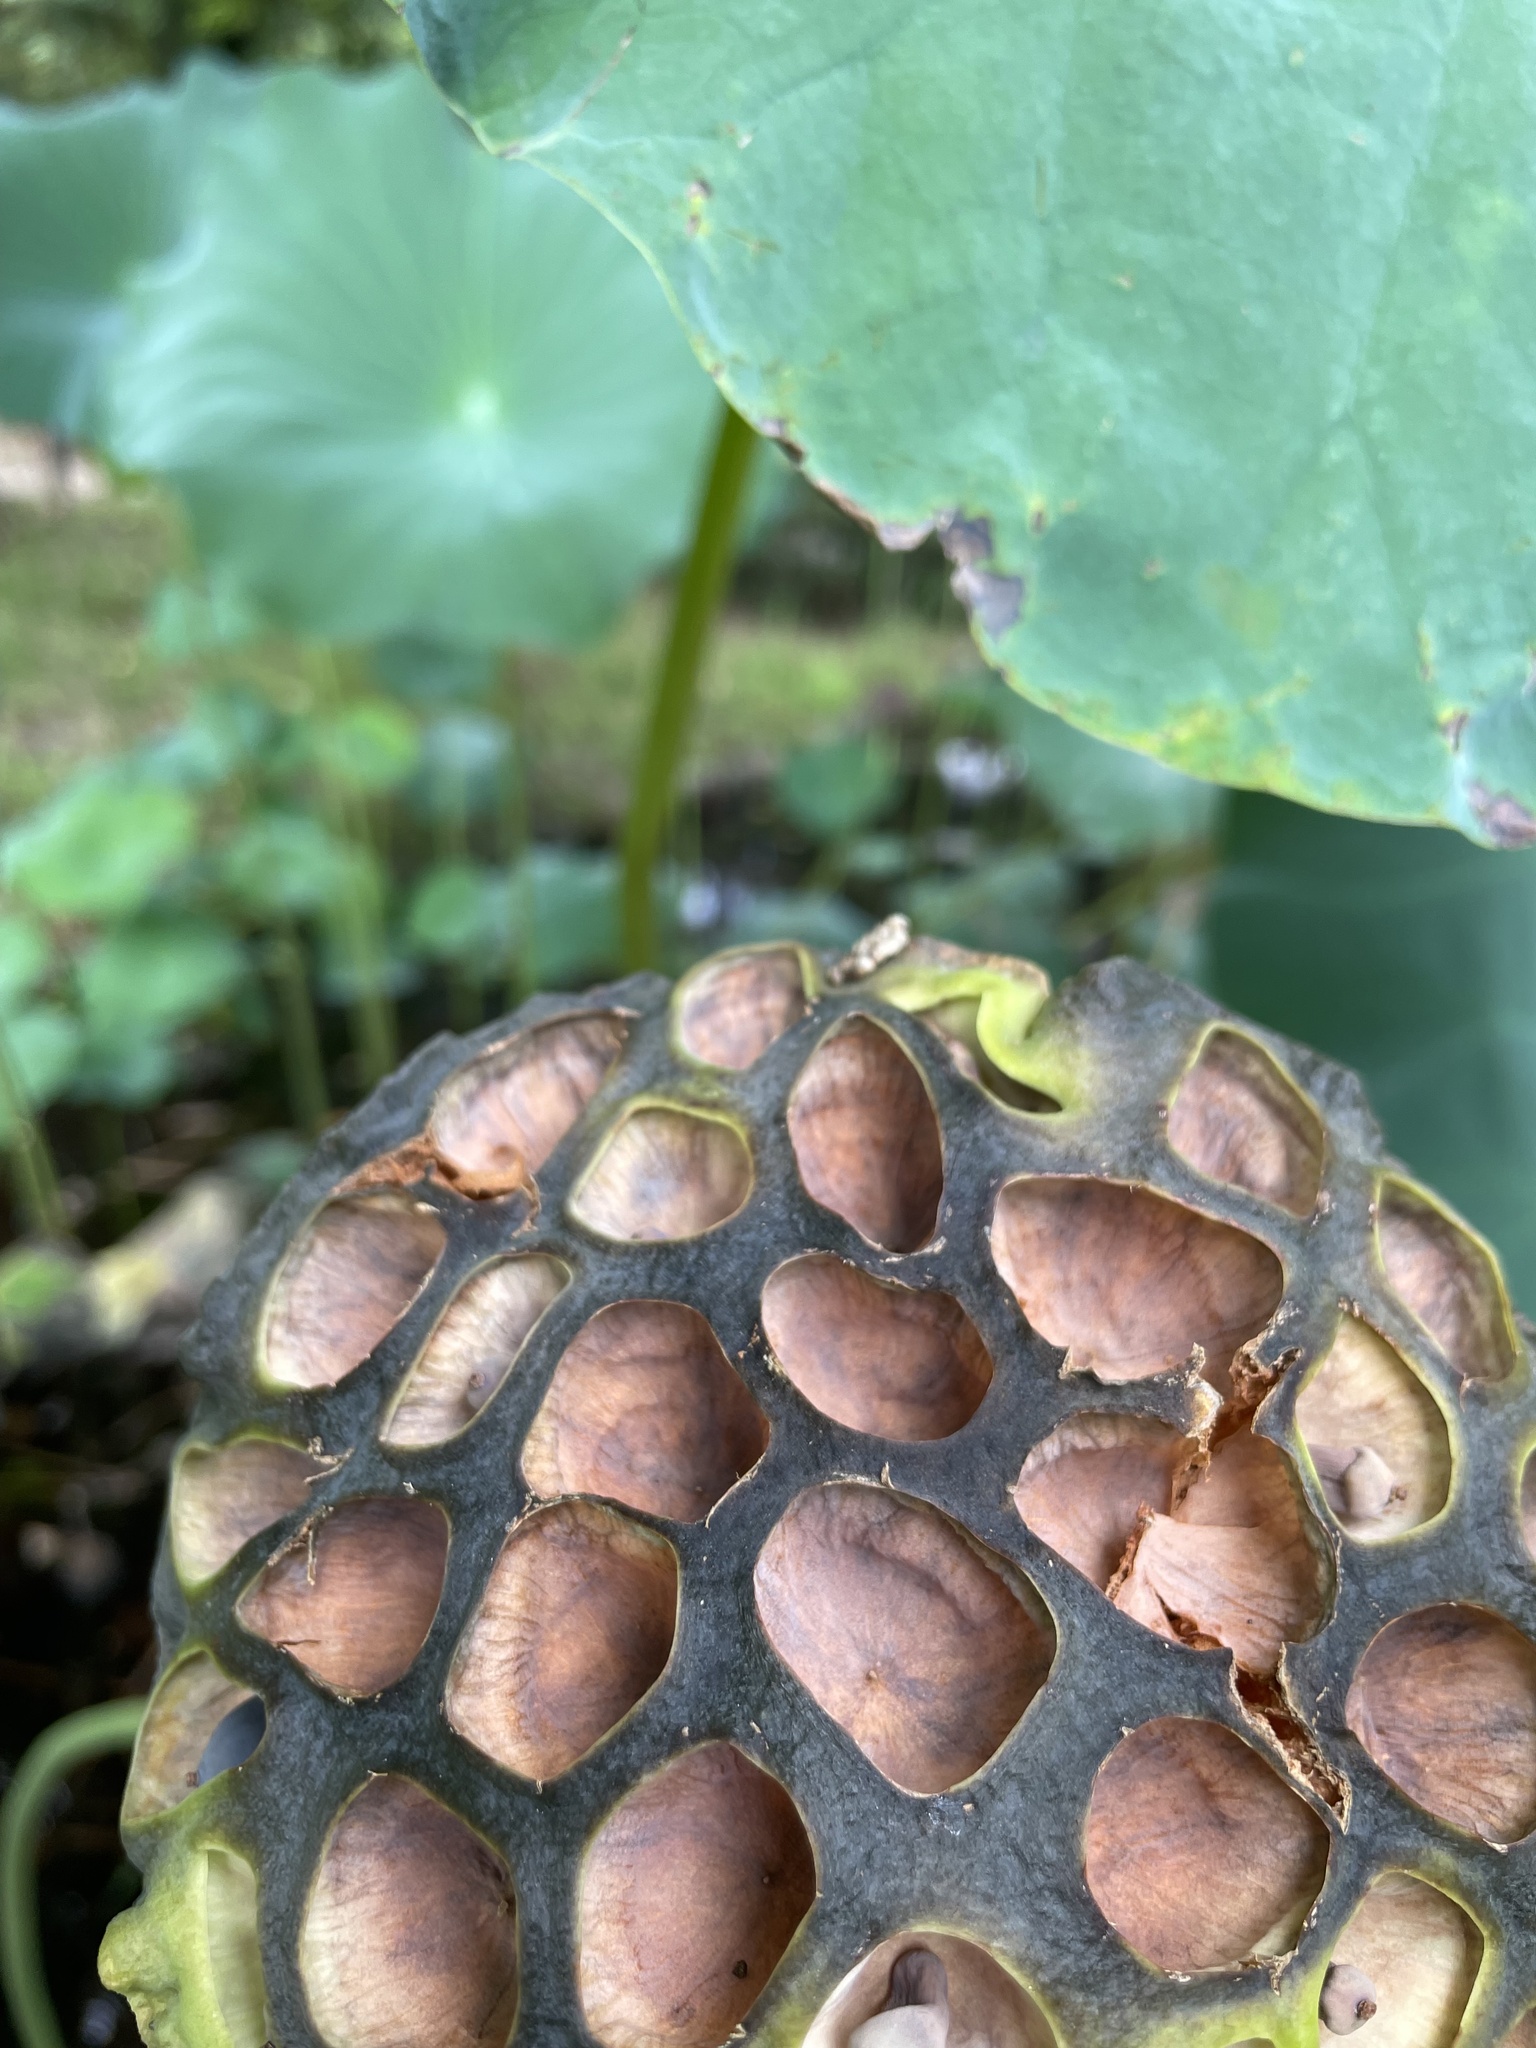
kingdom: Plantae
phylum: Tracheophyta
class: Magnoliopsida
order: Proteales
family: Nelumbonaceae
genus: Nelumbo
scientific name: Nelumbo nucifera
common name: Sacred lotus
